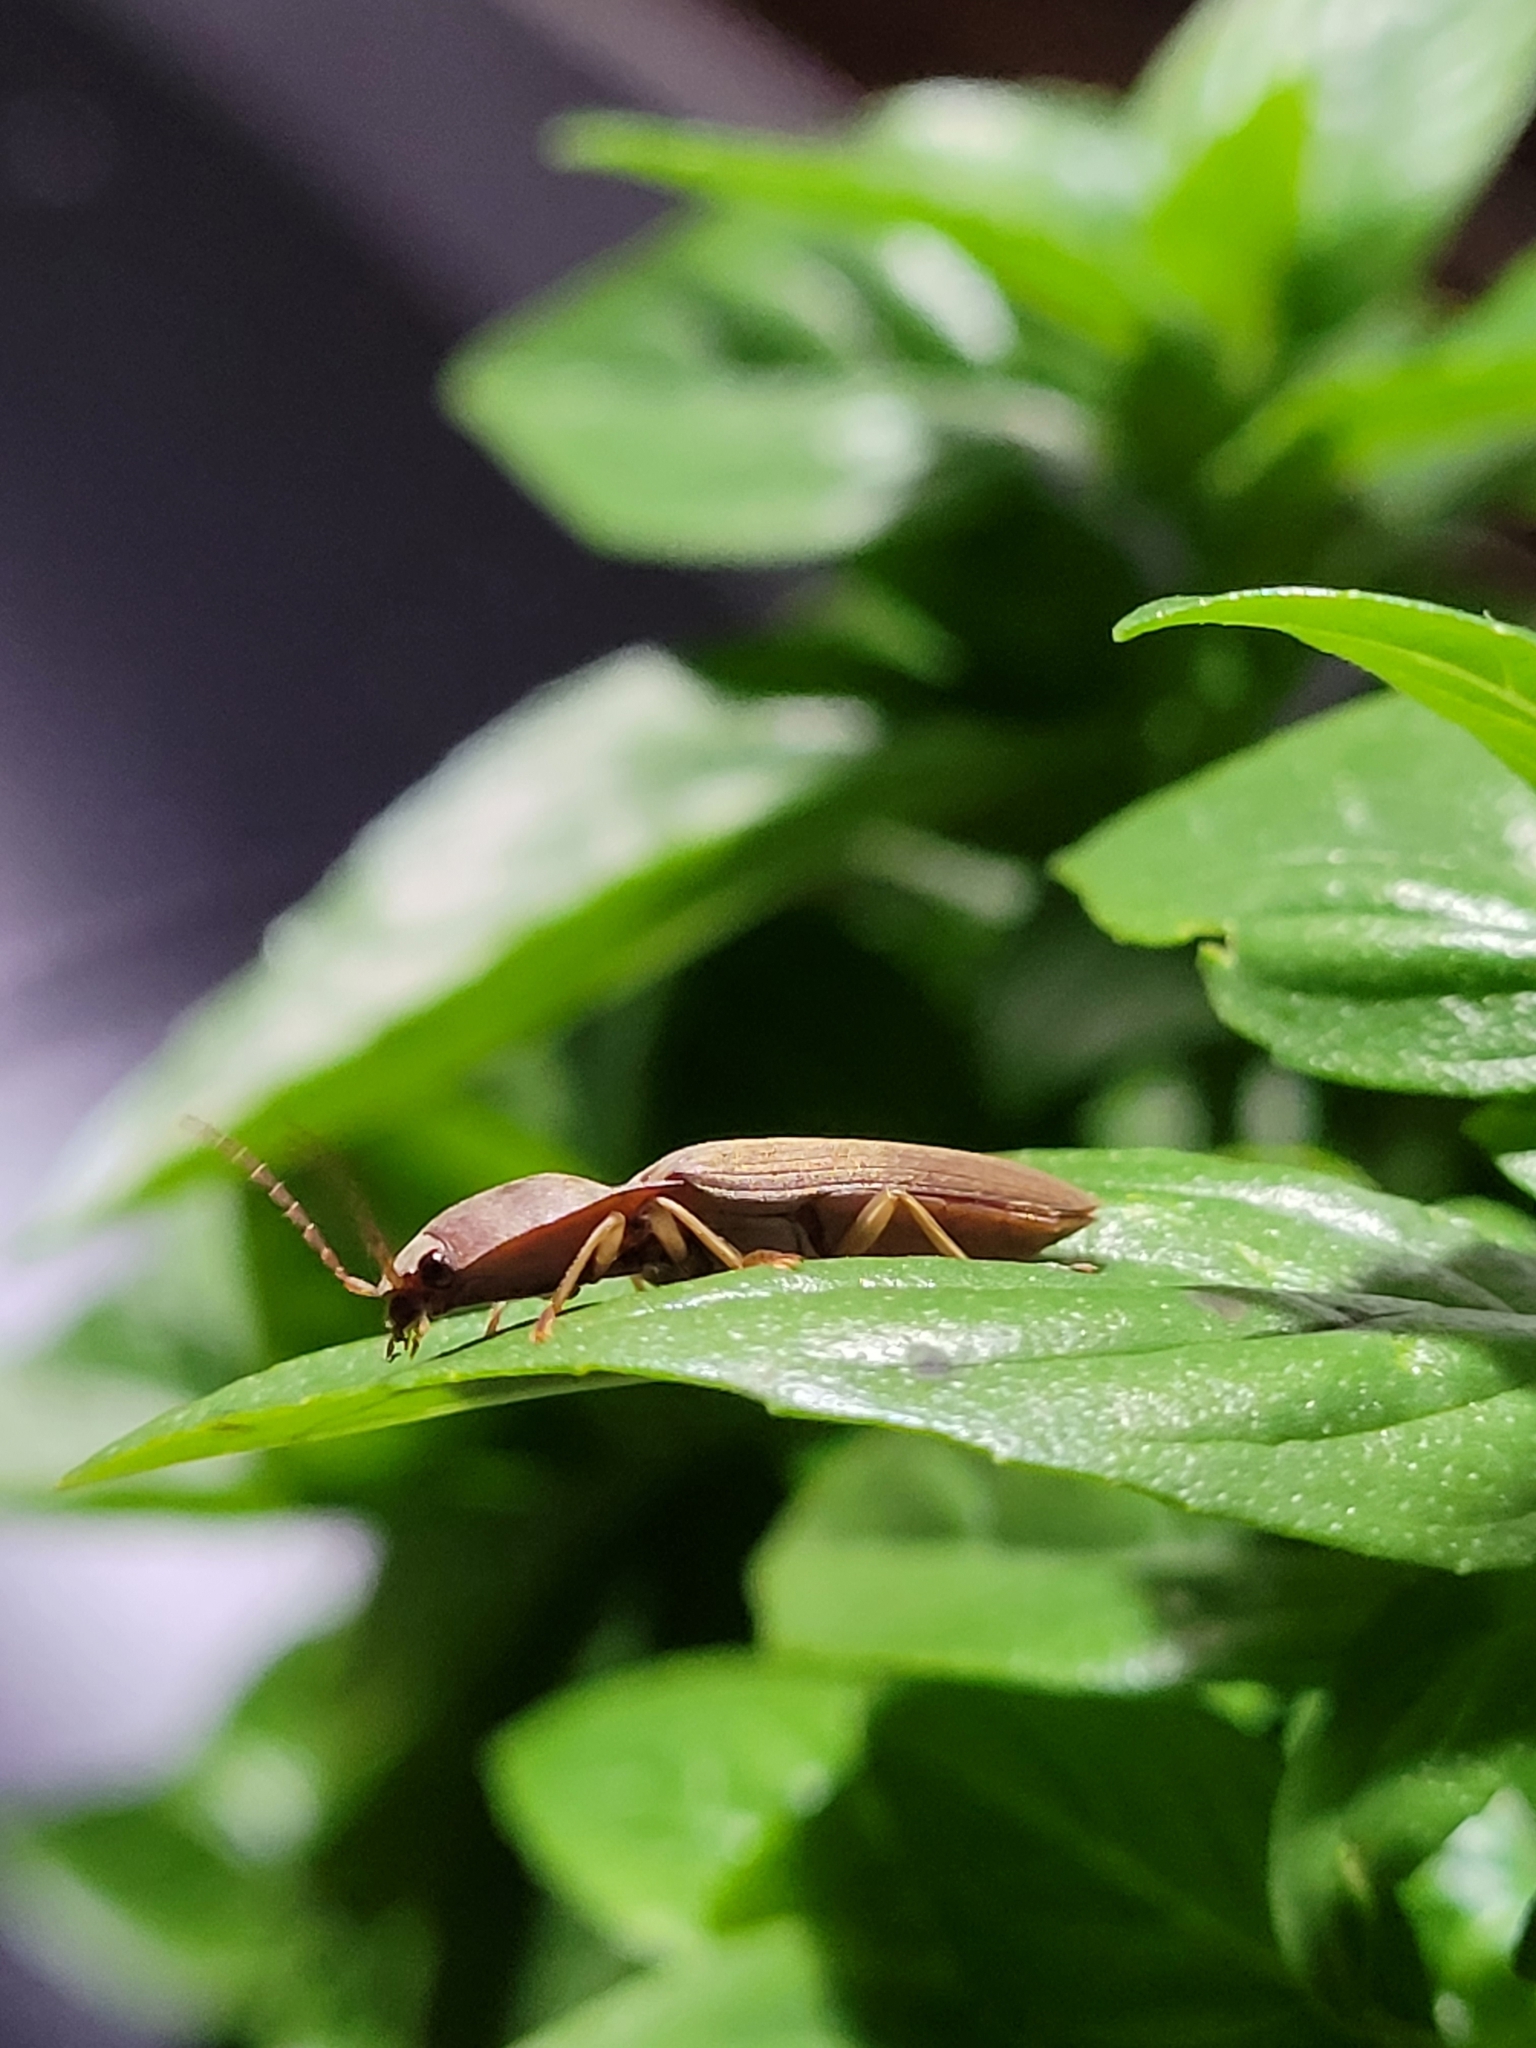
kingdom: Animalia
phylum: Arthropoda
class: Insecta
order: Coleoptera
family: Elateridae
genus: Monocrepidius
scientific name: Monocrepidius lividus
